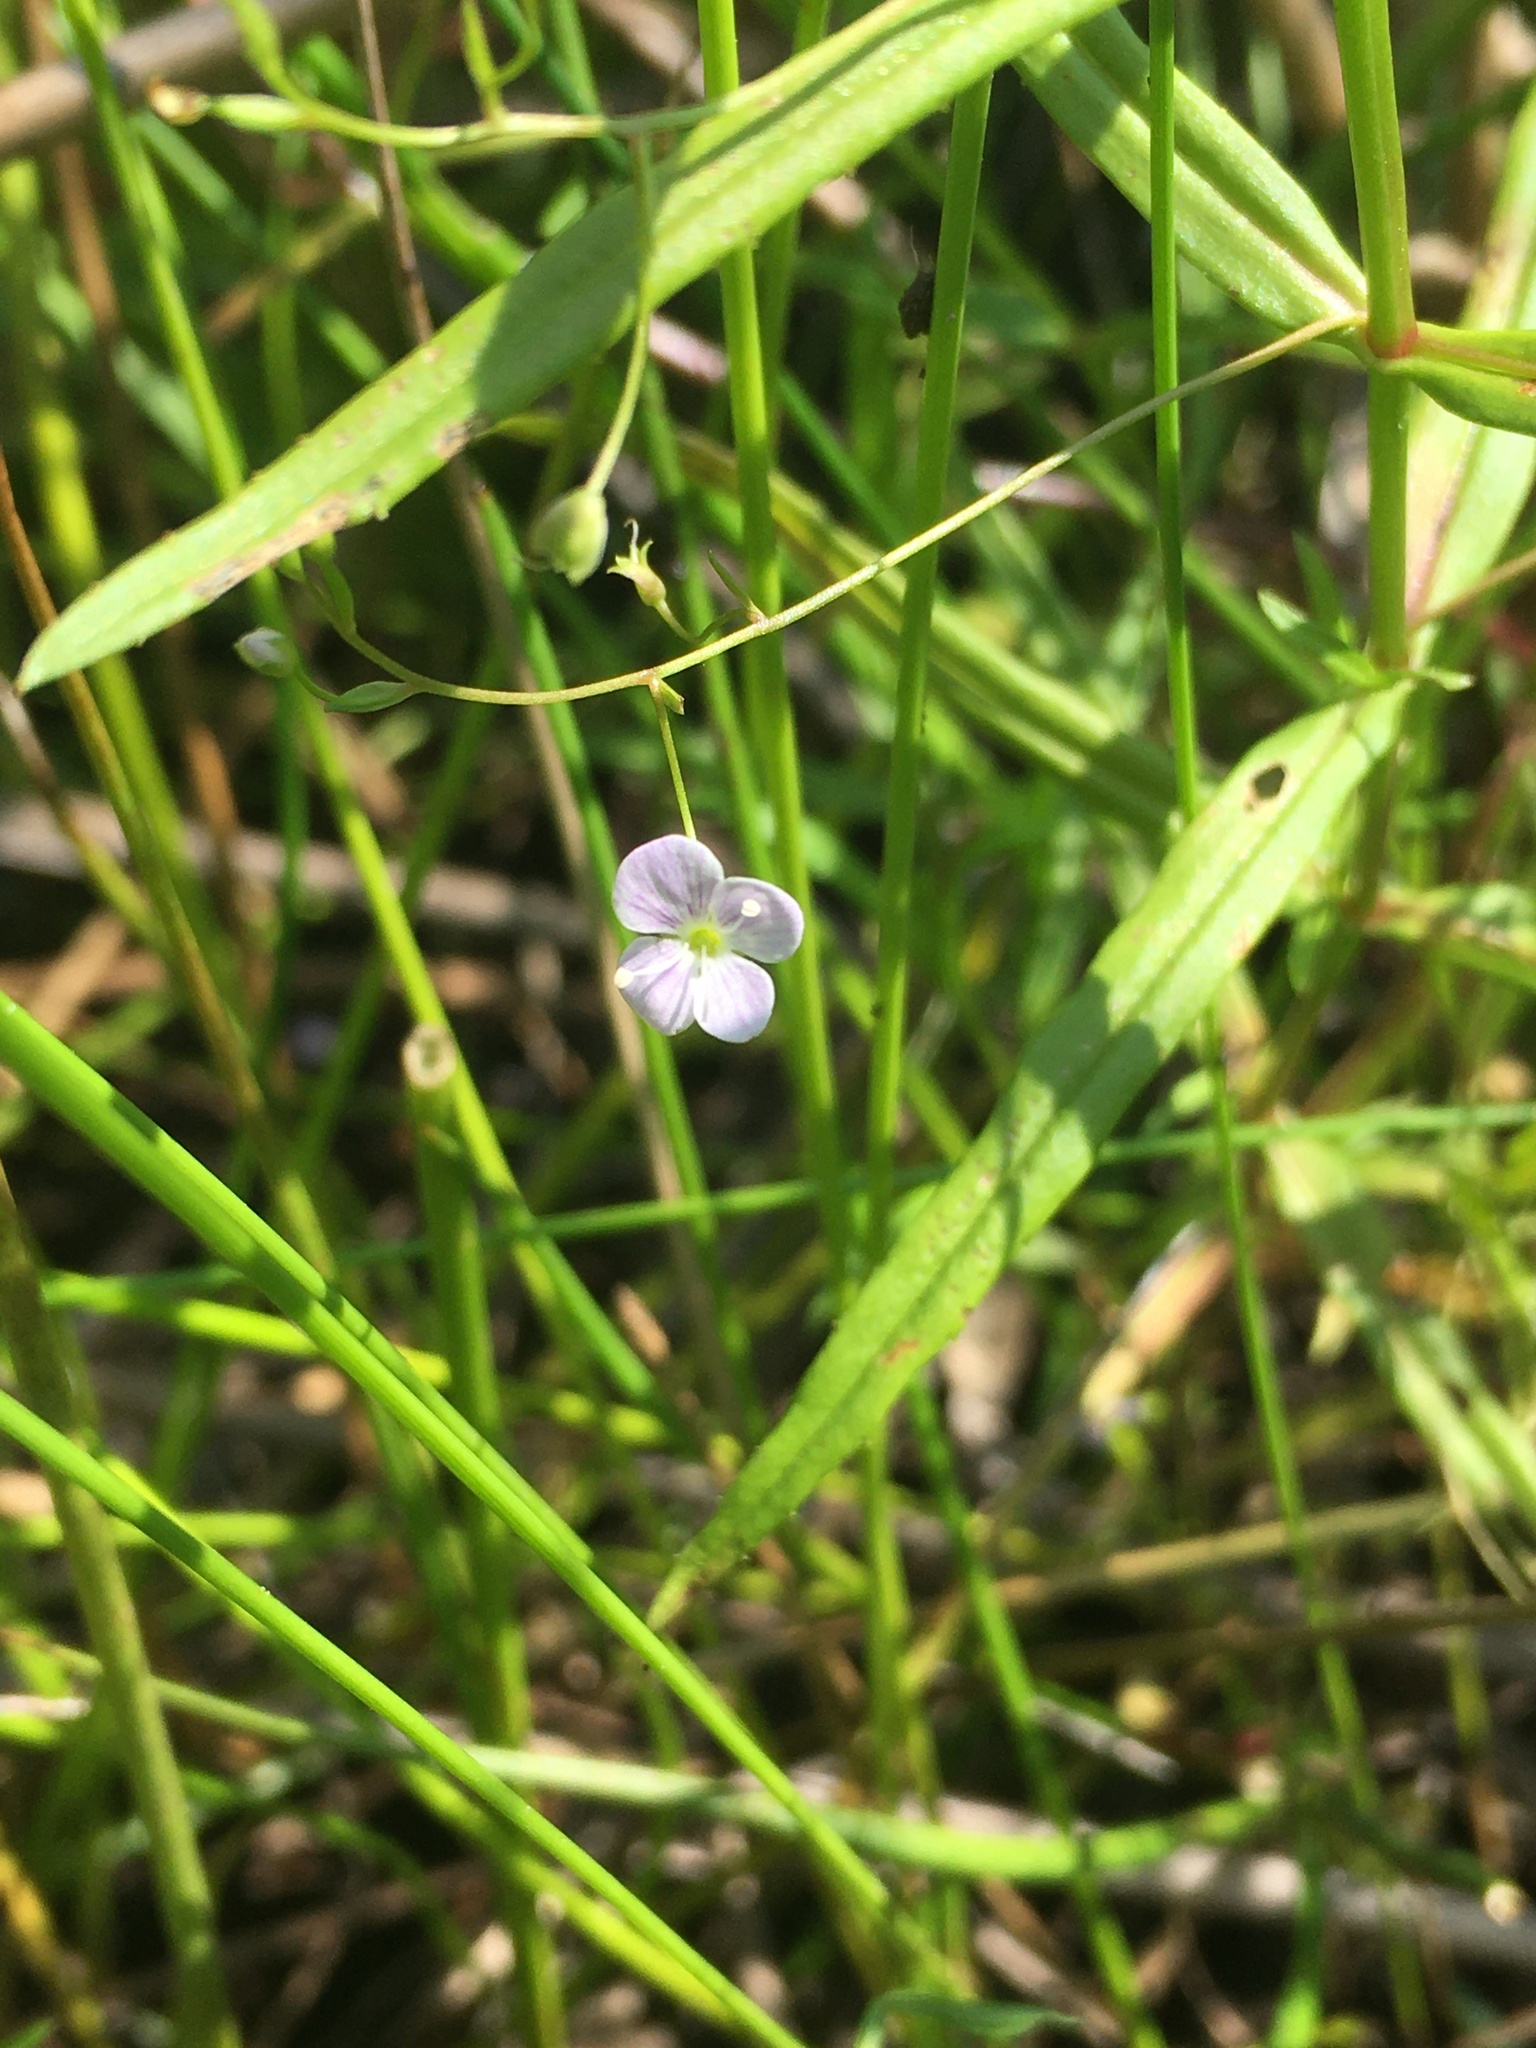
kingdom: Plantae
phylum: Tracheophyta
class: Magnoliopsida
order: Lamiales
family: Plantaginaceae
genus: Veronica
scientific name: Veronica scutellata
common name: Marsh speedwell
